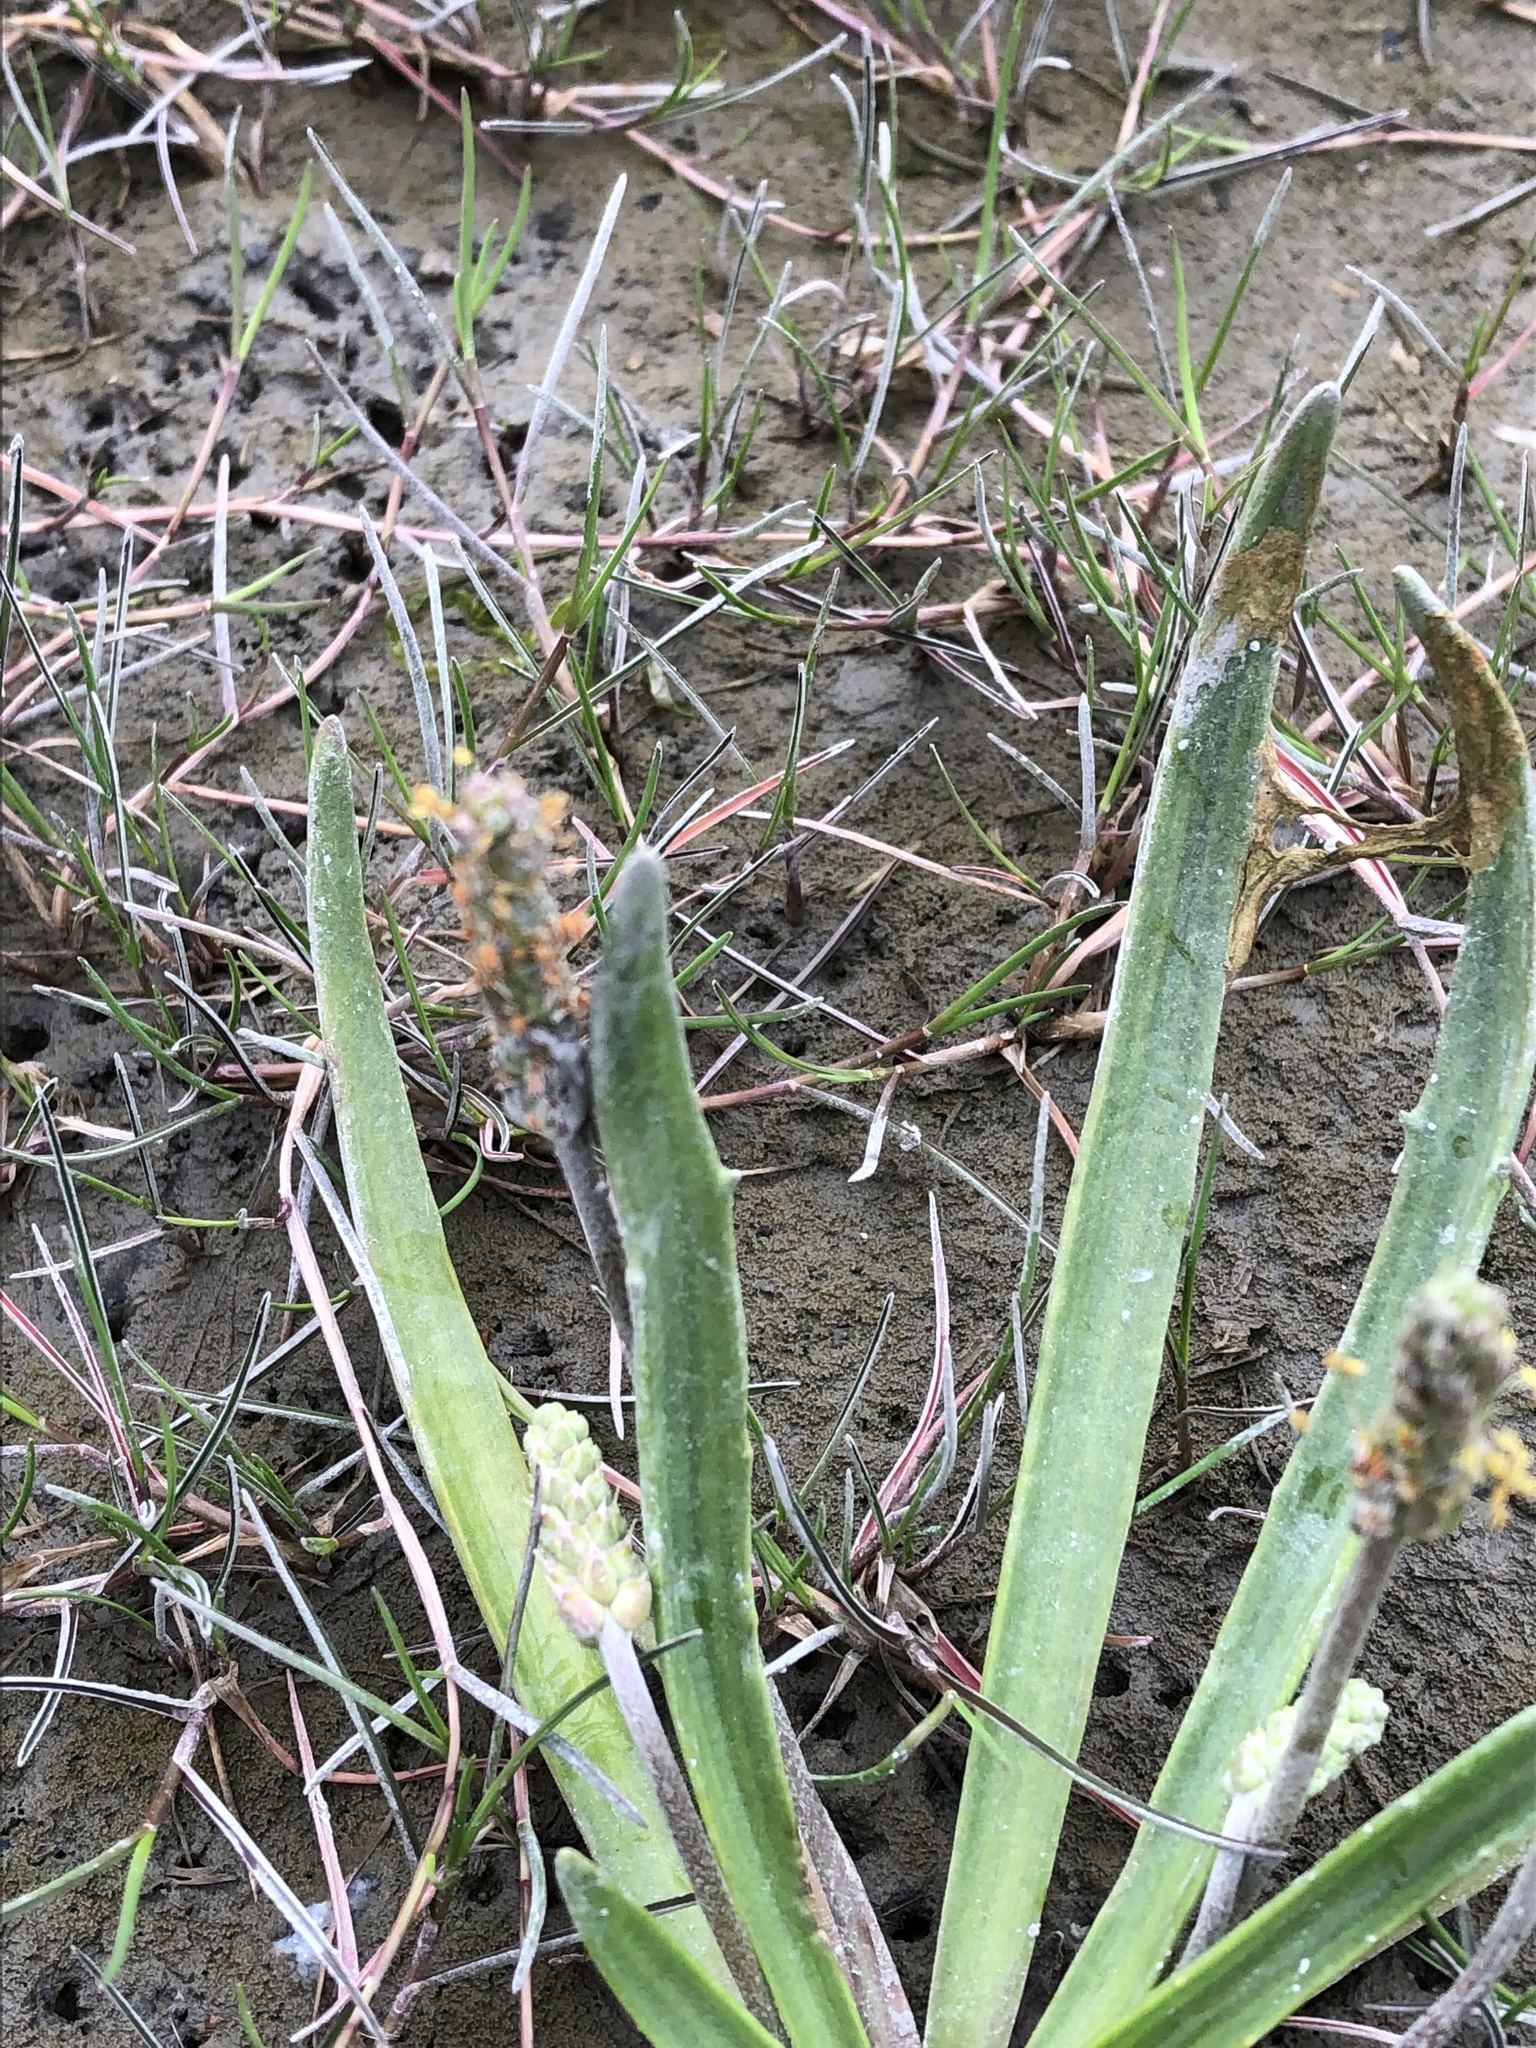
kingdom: Plantae
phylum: Tracheophyta
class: Magnoliopsida
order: Lamiales
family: Plantaginaceae
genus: Plantago
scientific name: Plantago maritima
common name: Sea plantain
